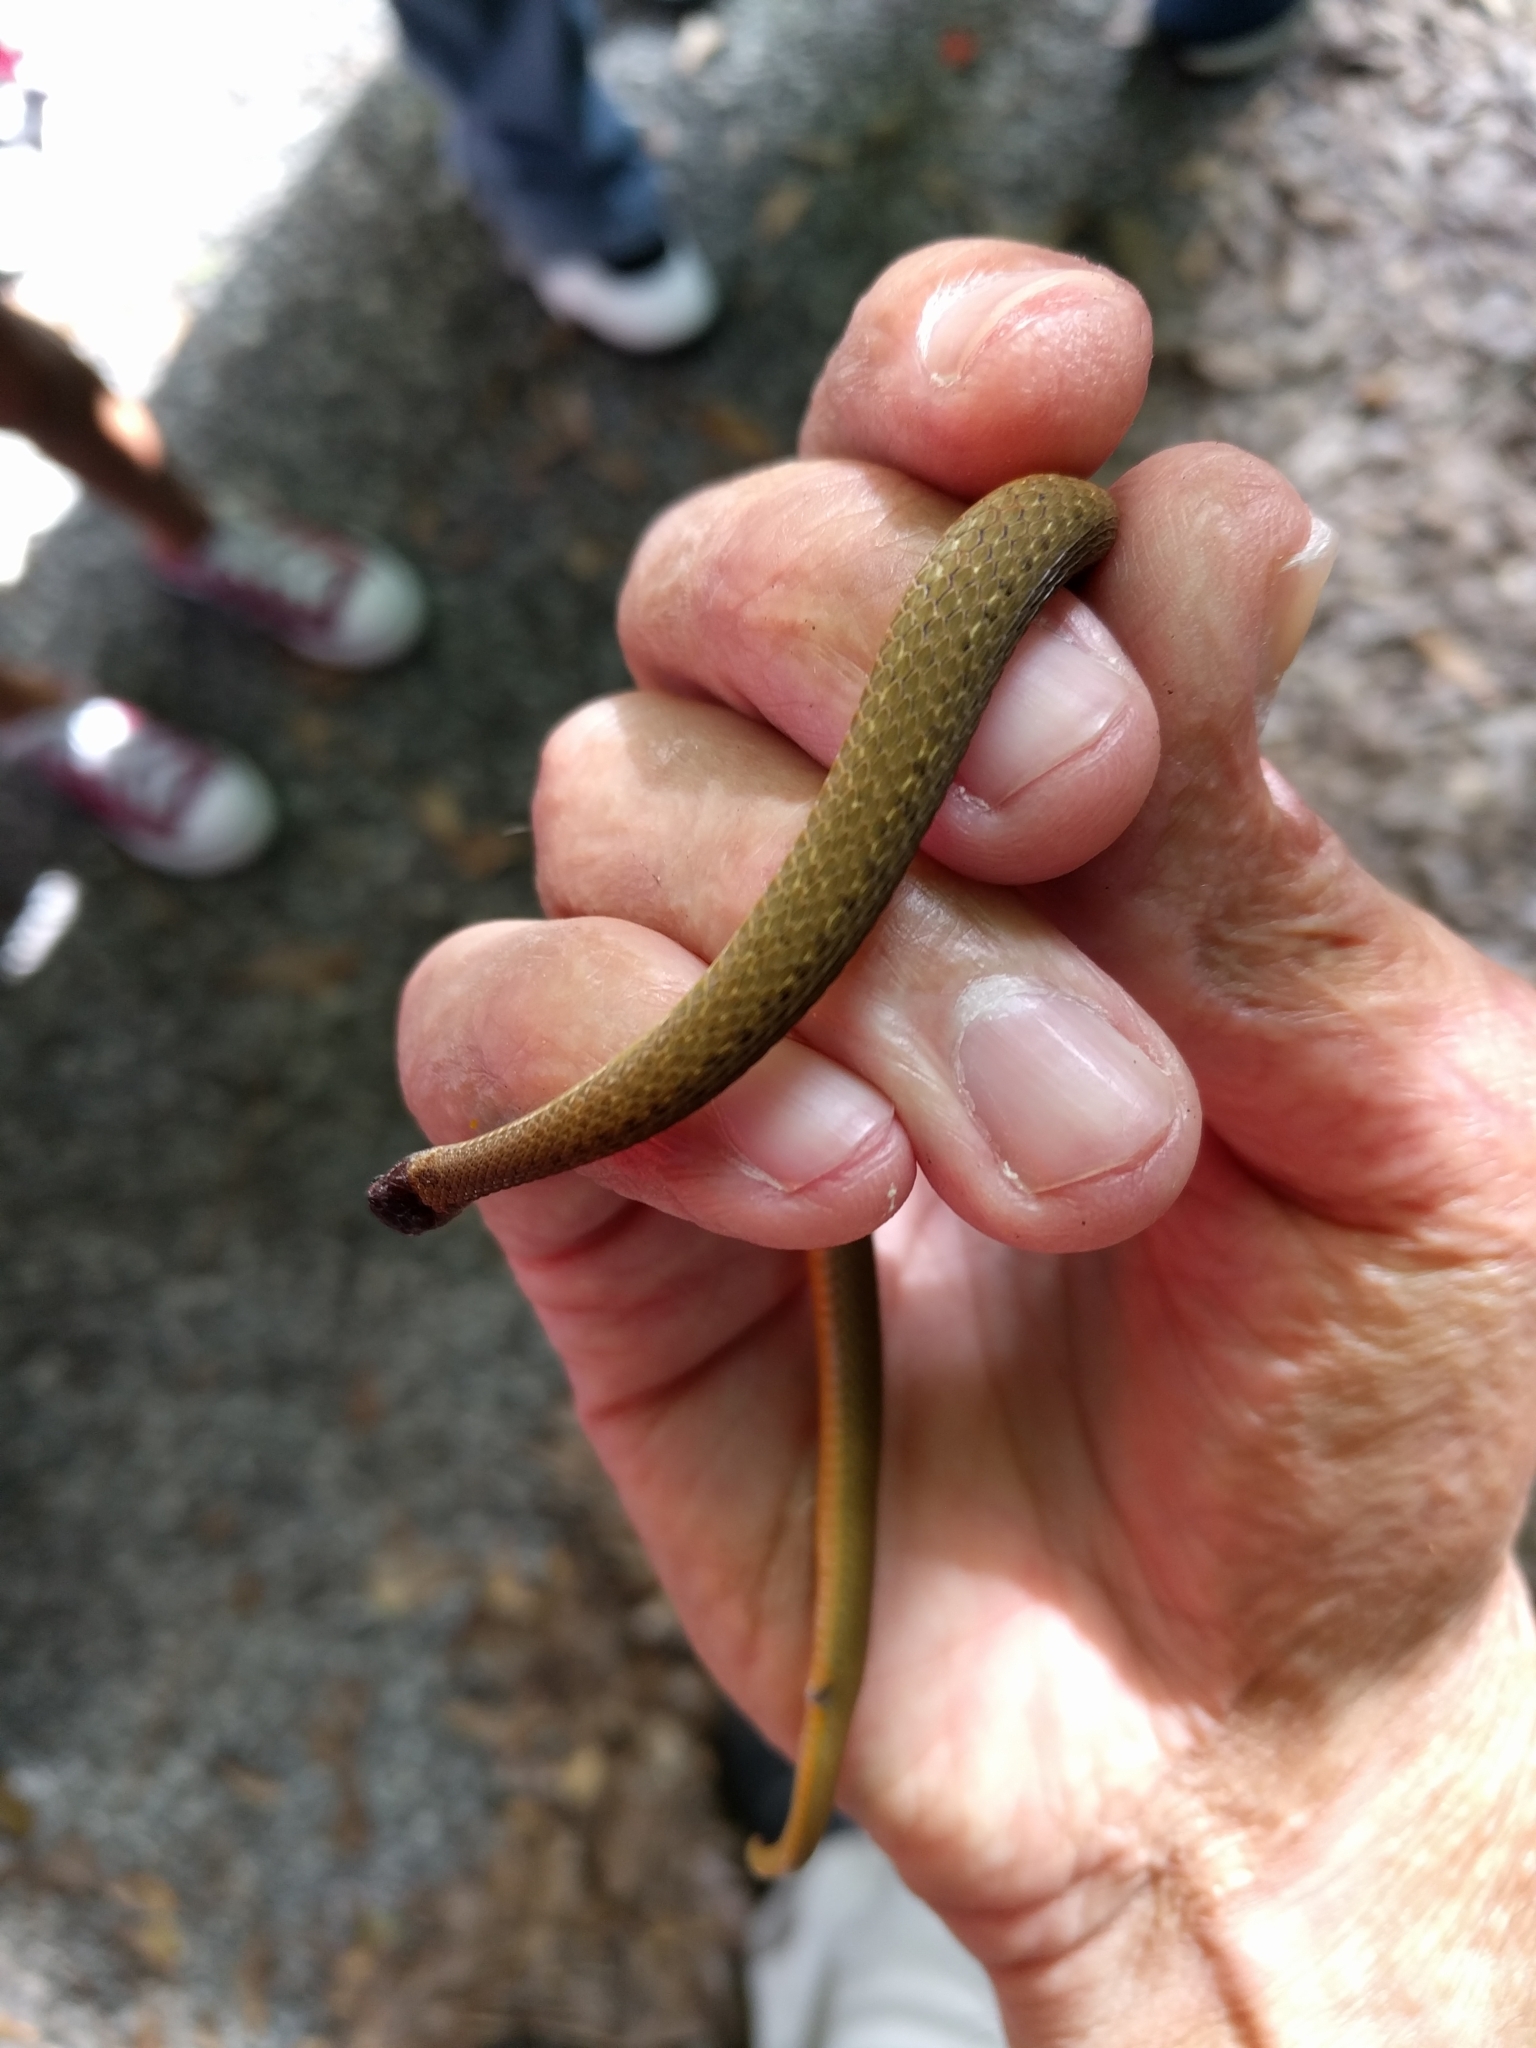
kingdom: Animalia
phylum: Chordata
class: Squamata
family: Colubridae
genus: Storeria
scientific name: Storeria occipitomaculata
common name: Redbelly snake
